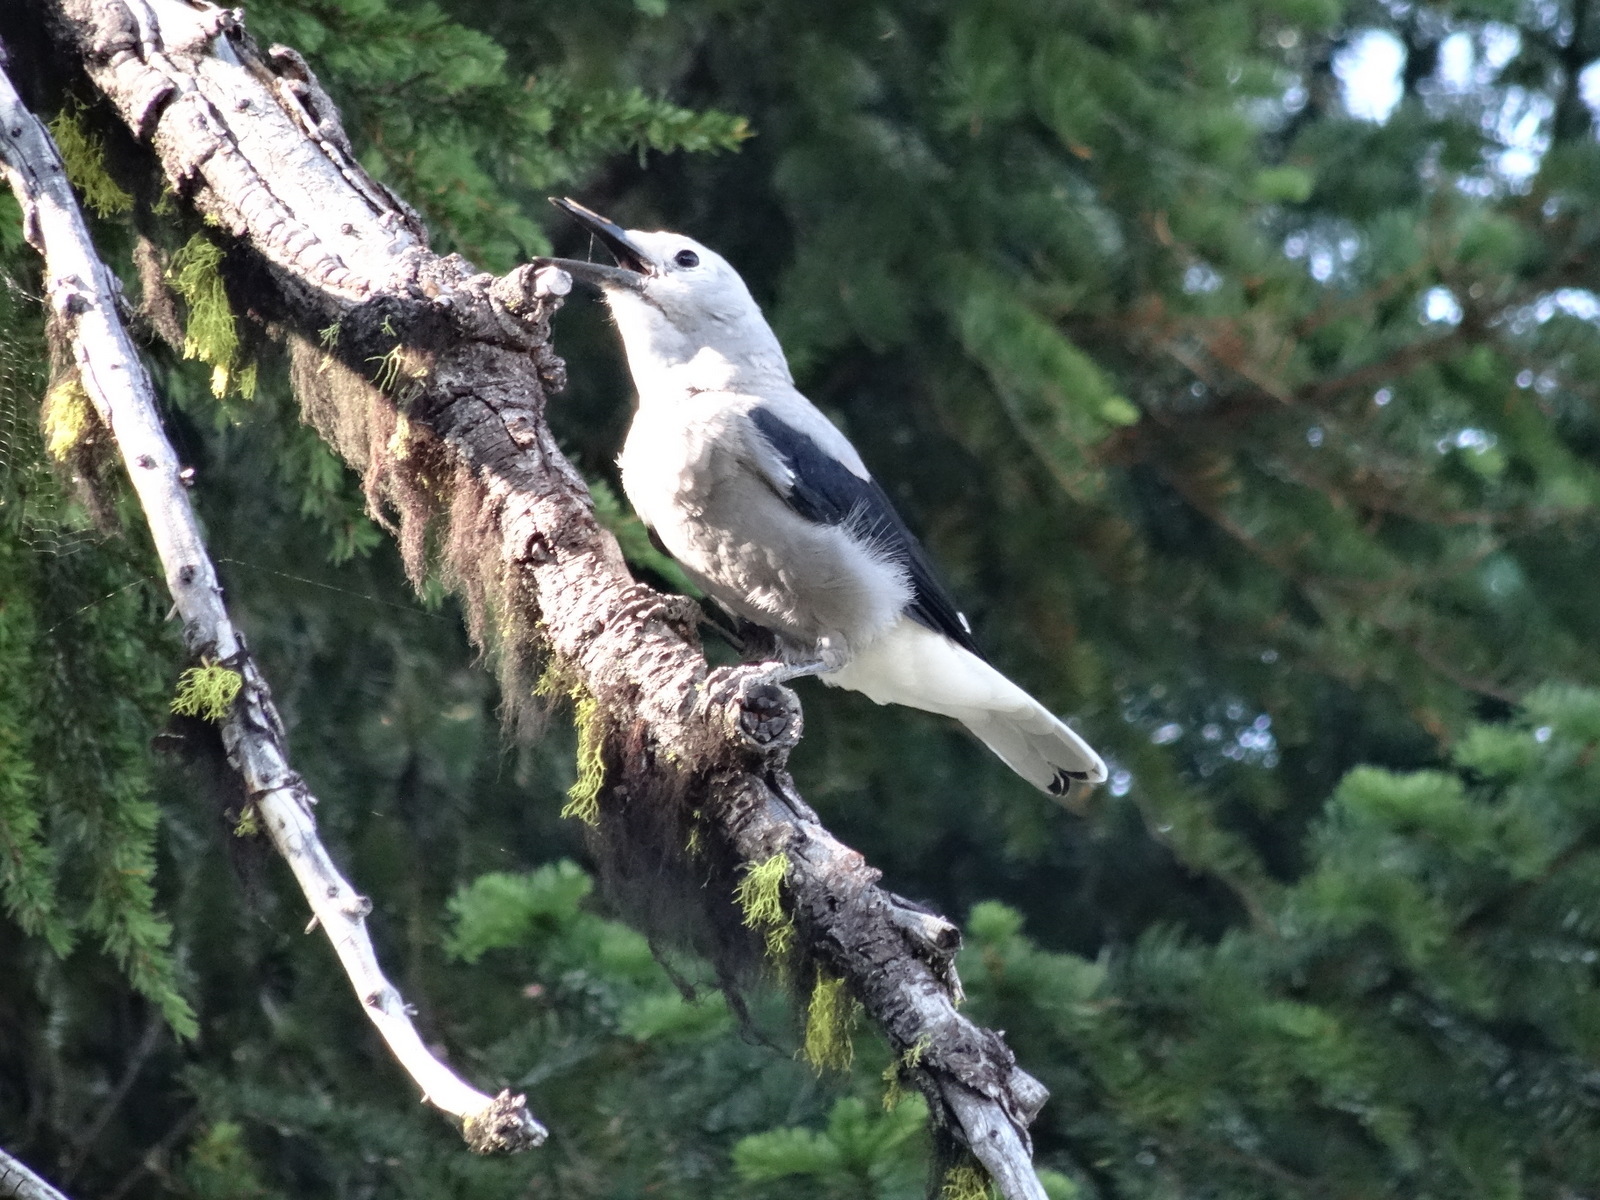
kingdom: Animalia
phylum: Chordata
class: Aves
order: Passeriformes
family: Corvidae
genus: Nucifraga
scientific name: Nucifraga columbiana
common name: Clark's nutcracker
